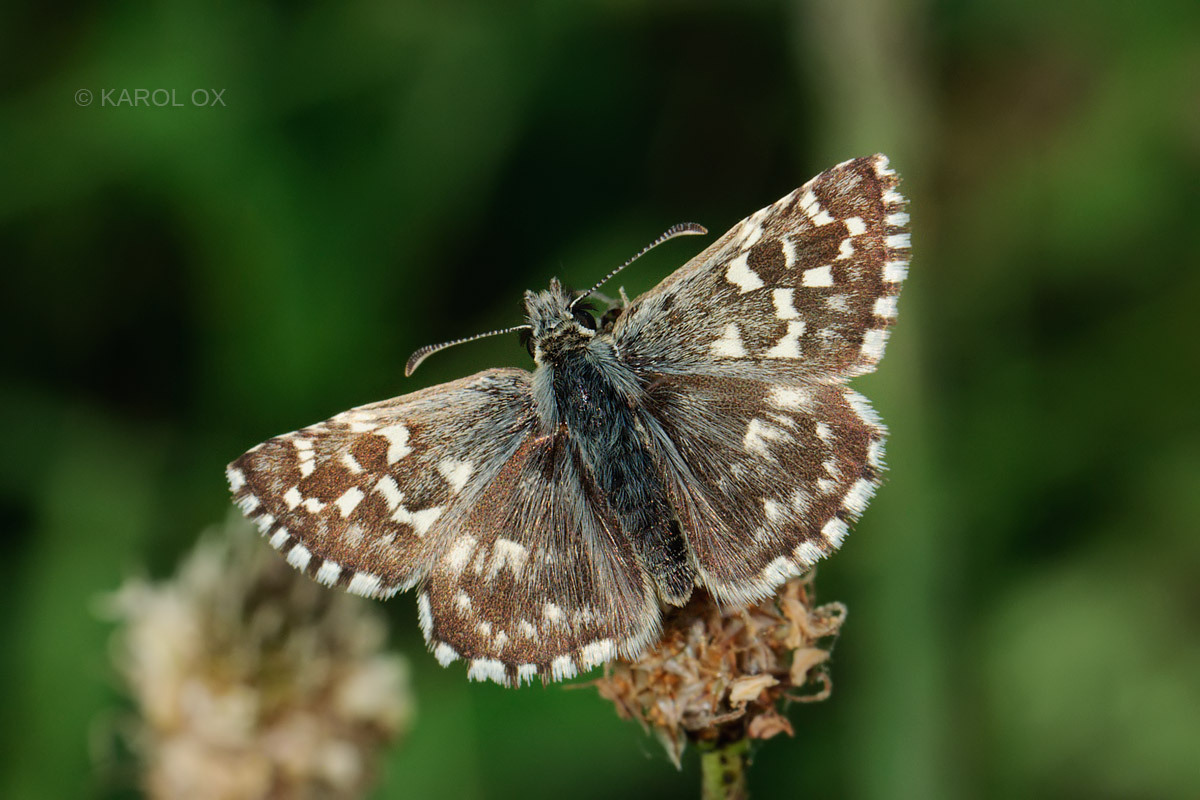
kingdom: Animalia
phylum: Arthropoda
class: Insecta
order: Lepidoptera
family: Hesperiidae
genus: Pyrgus
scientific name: Pyrgus malvae
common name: Grizzled skipper
